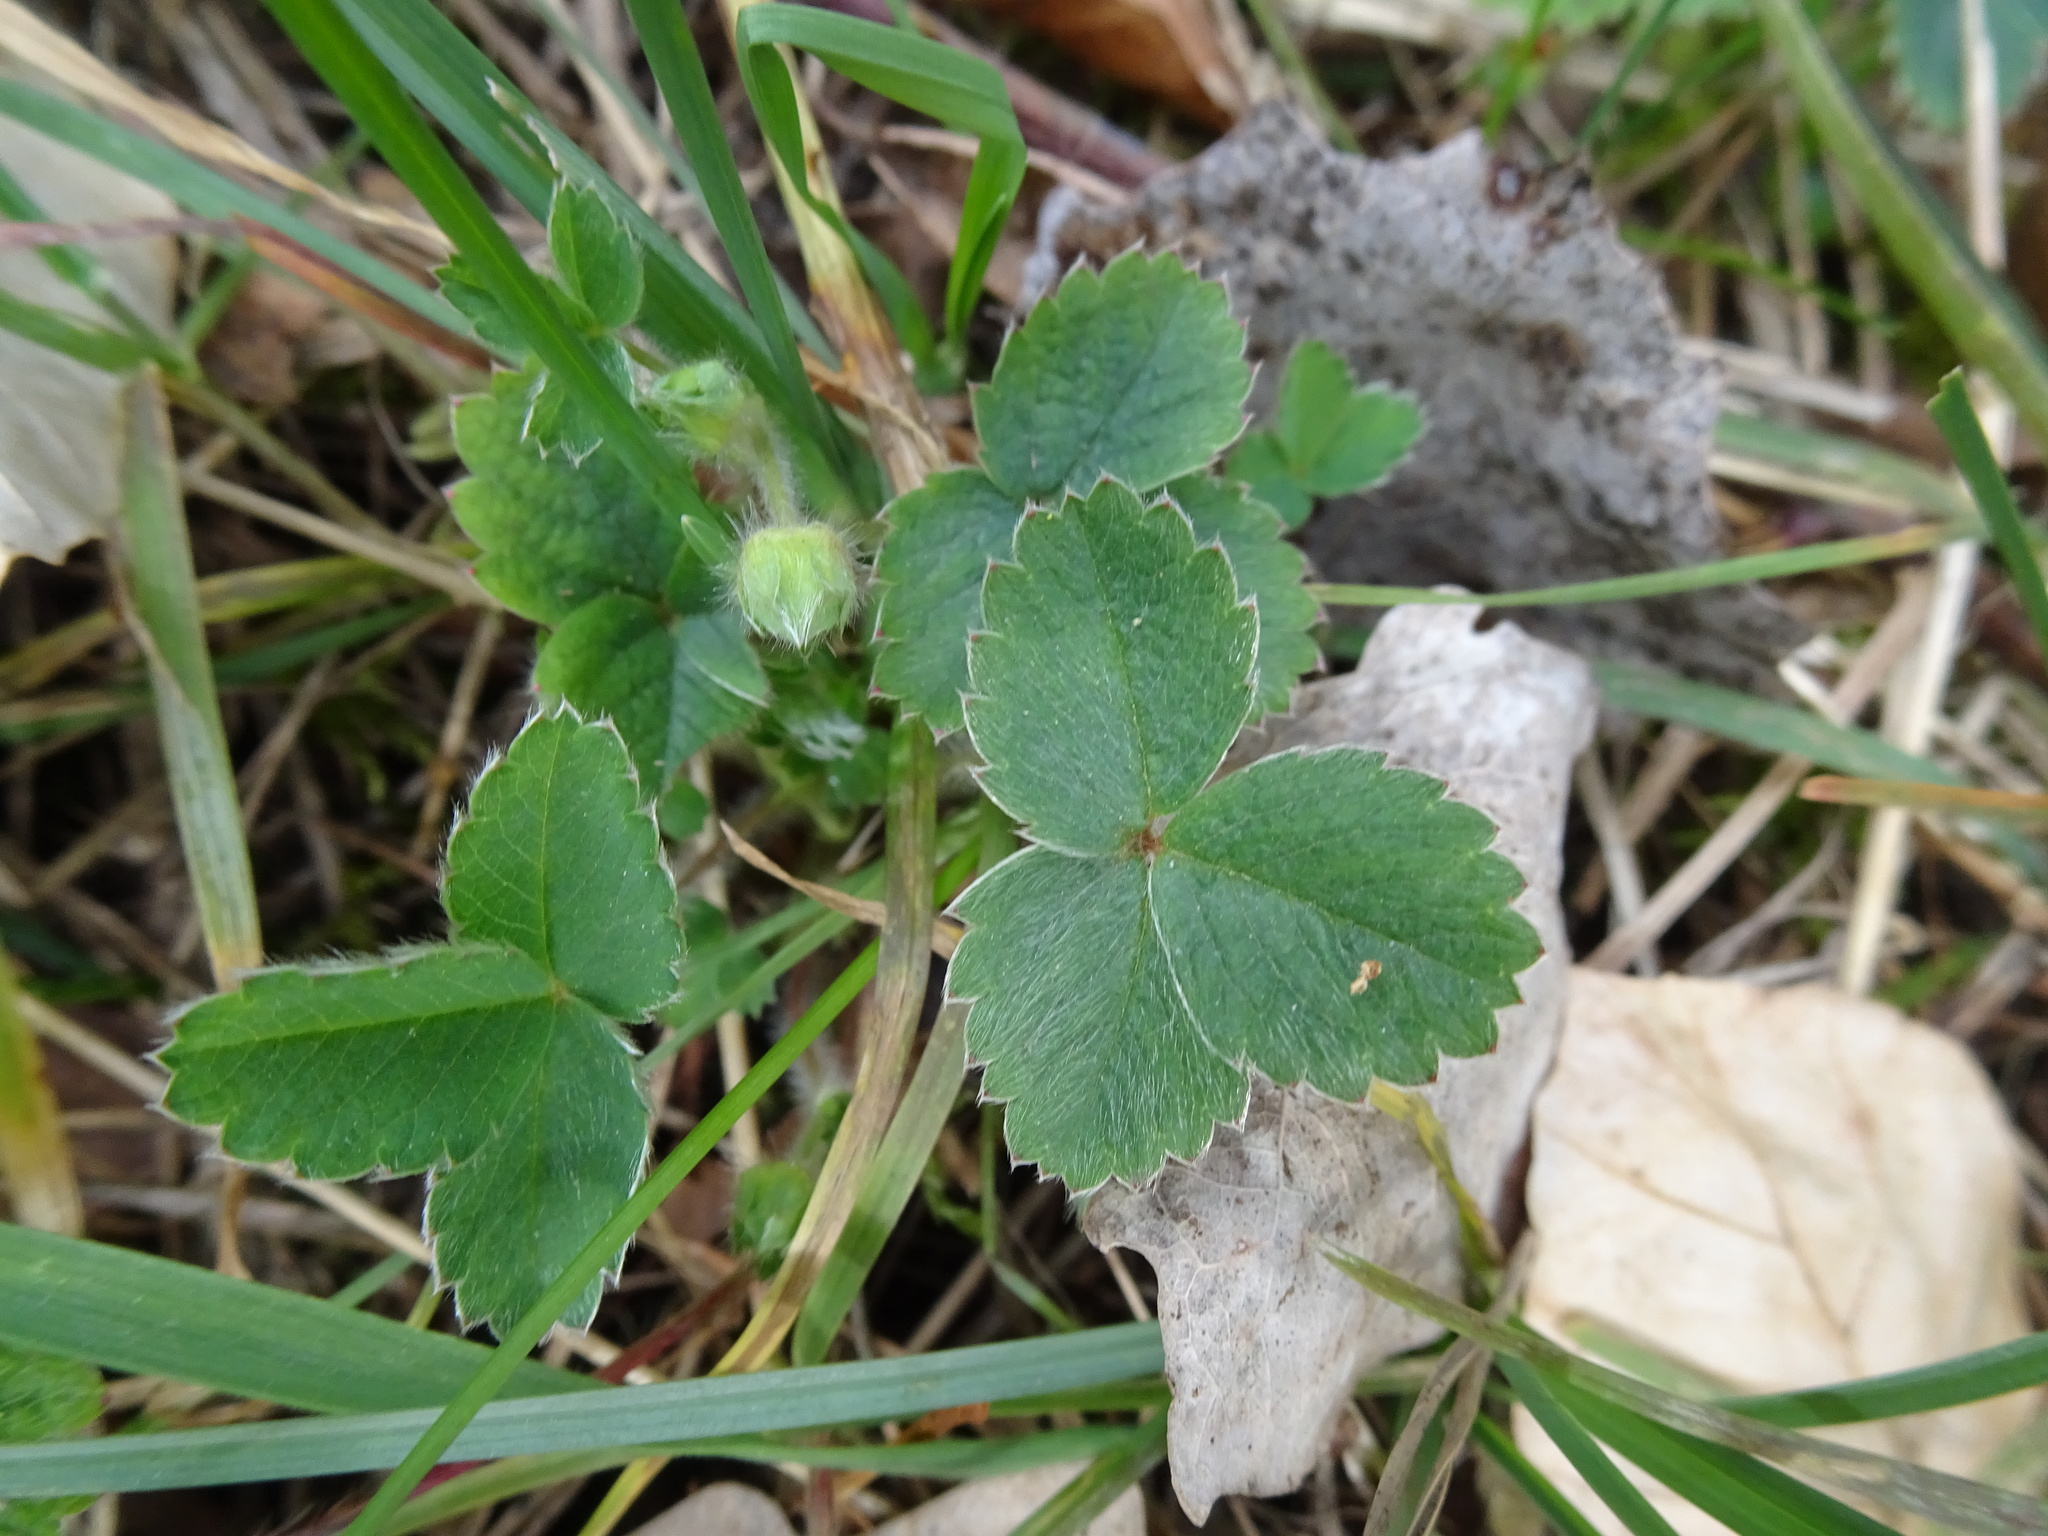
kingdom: Plantae
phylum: Tracheophyta
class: Magnoliopsida
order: Rosales
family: Rosaceae
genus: Potentilla
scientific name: Potentilla sterilis
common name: Barren strawberry
